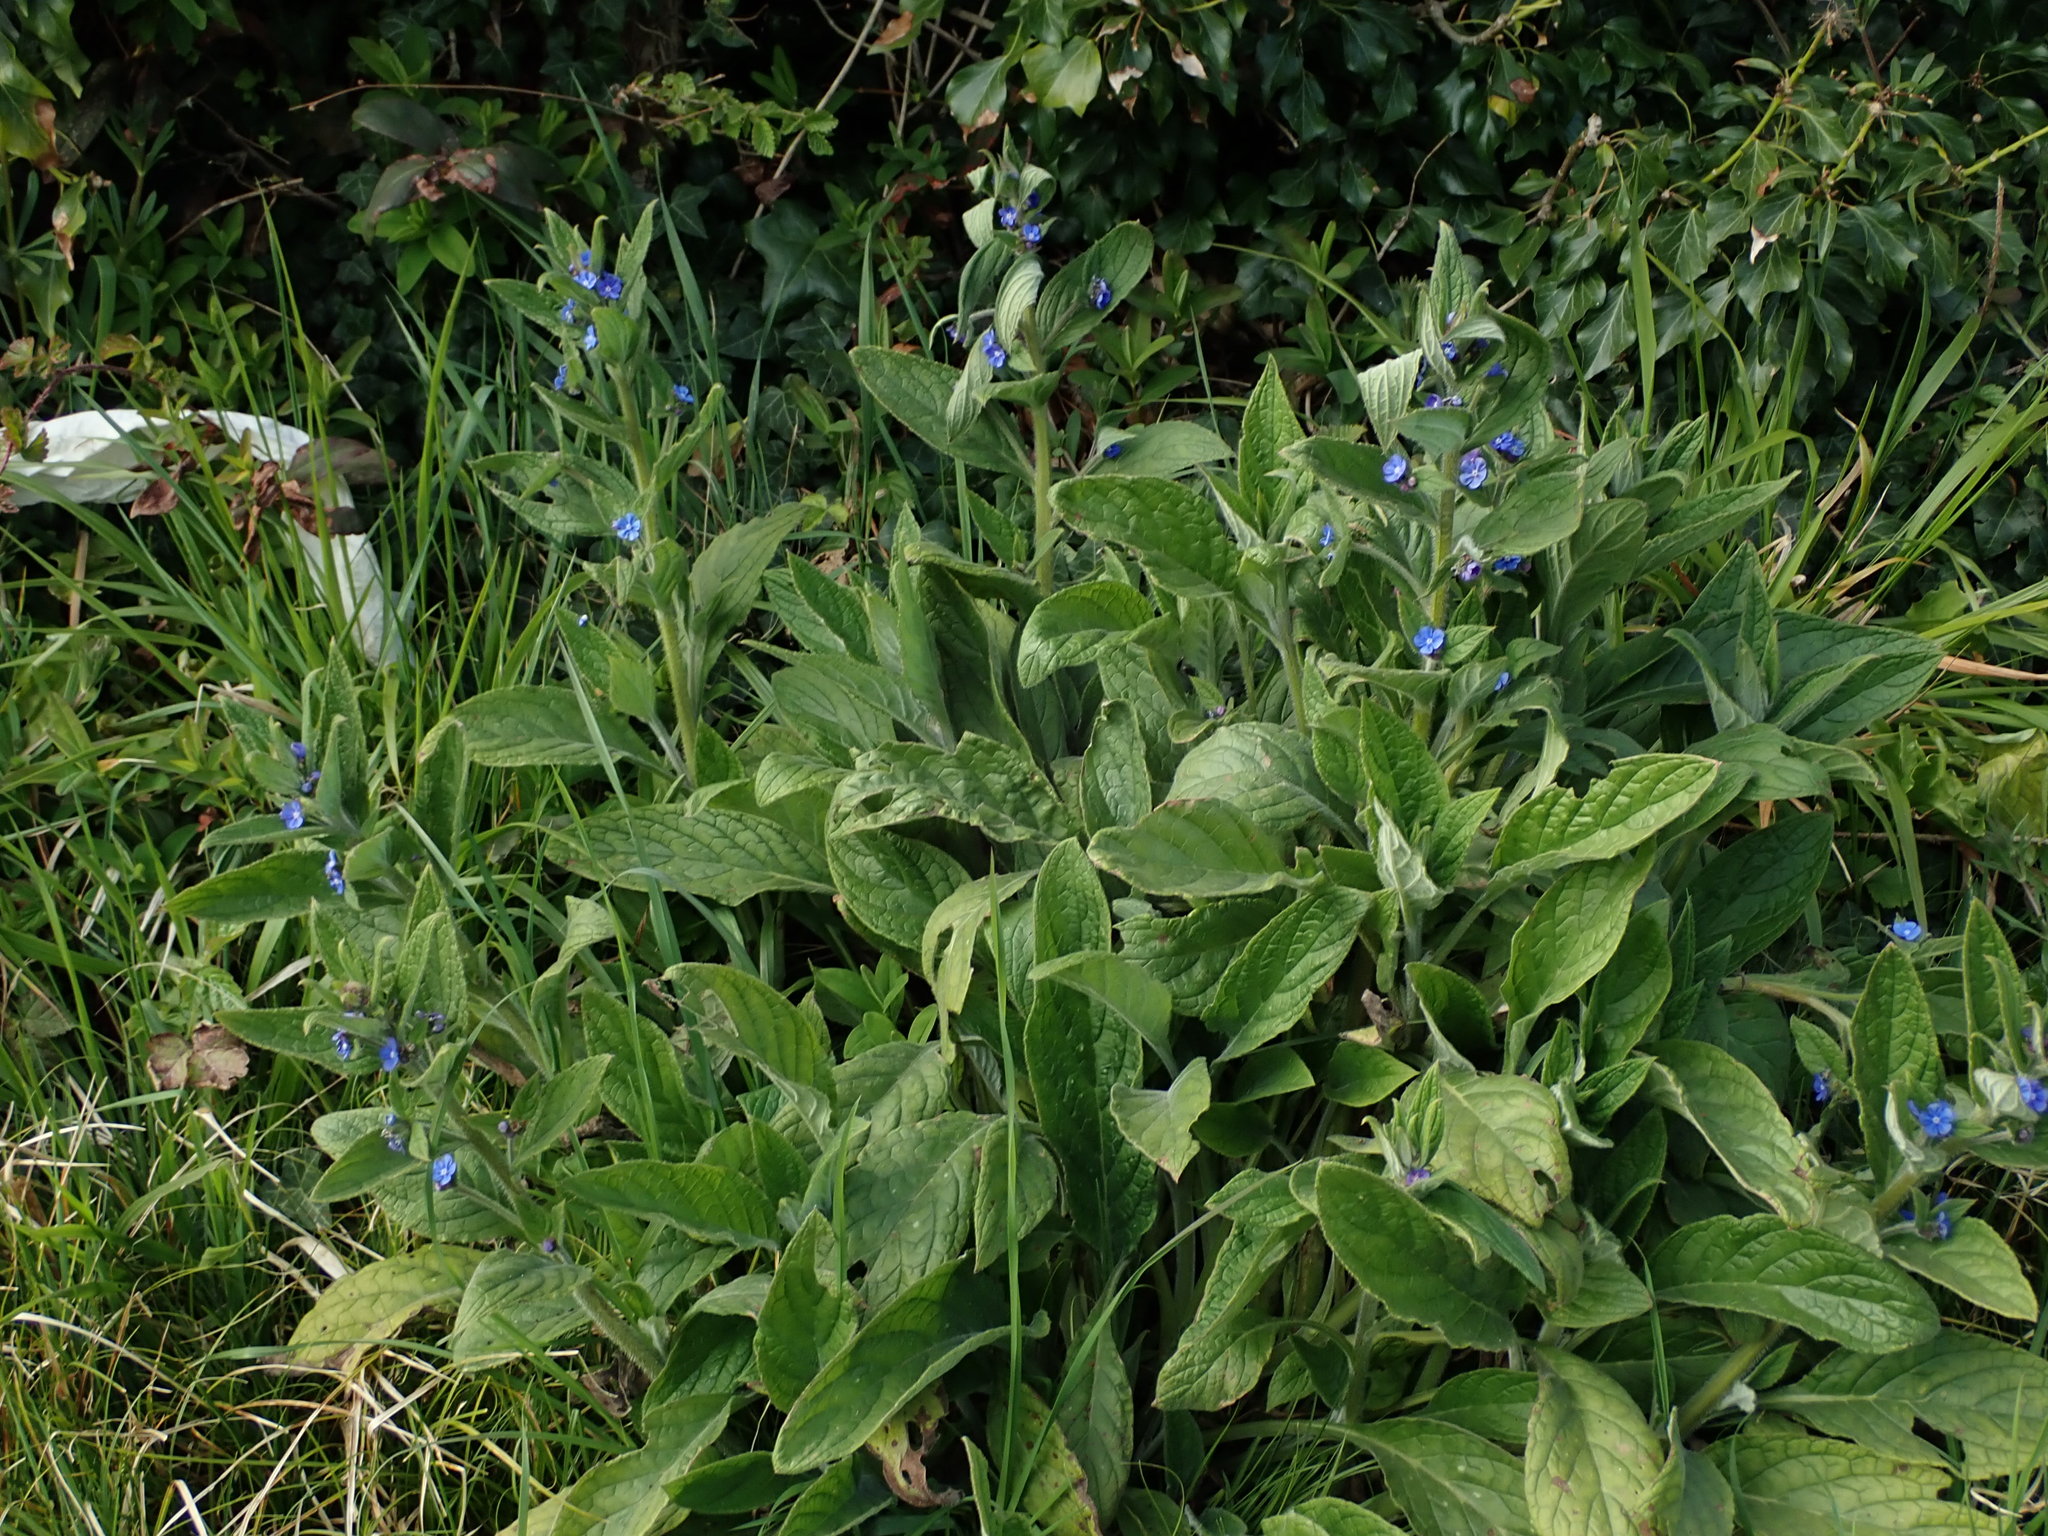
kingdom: Plantae
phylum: Tracheophyta
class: Magnoliopsida
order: Boraginales
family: Boraginaceae
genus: Pentaglottis
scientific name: Pentaglottis sempervirens
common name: Green alkanet
